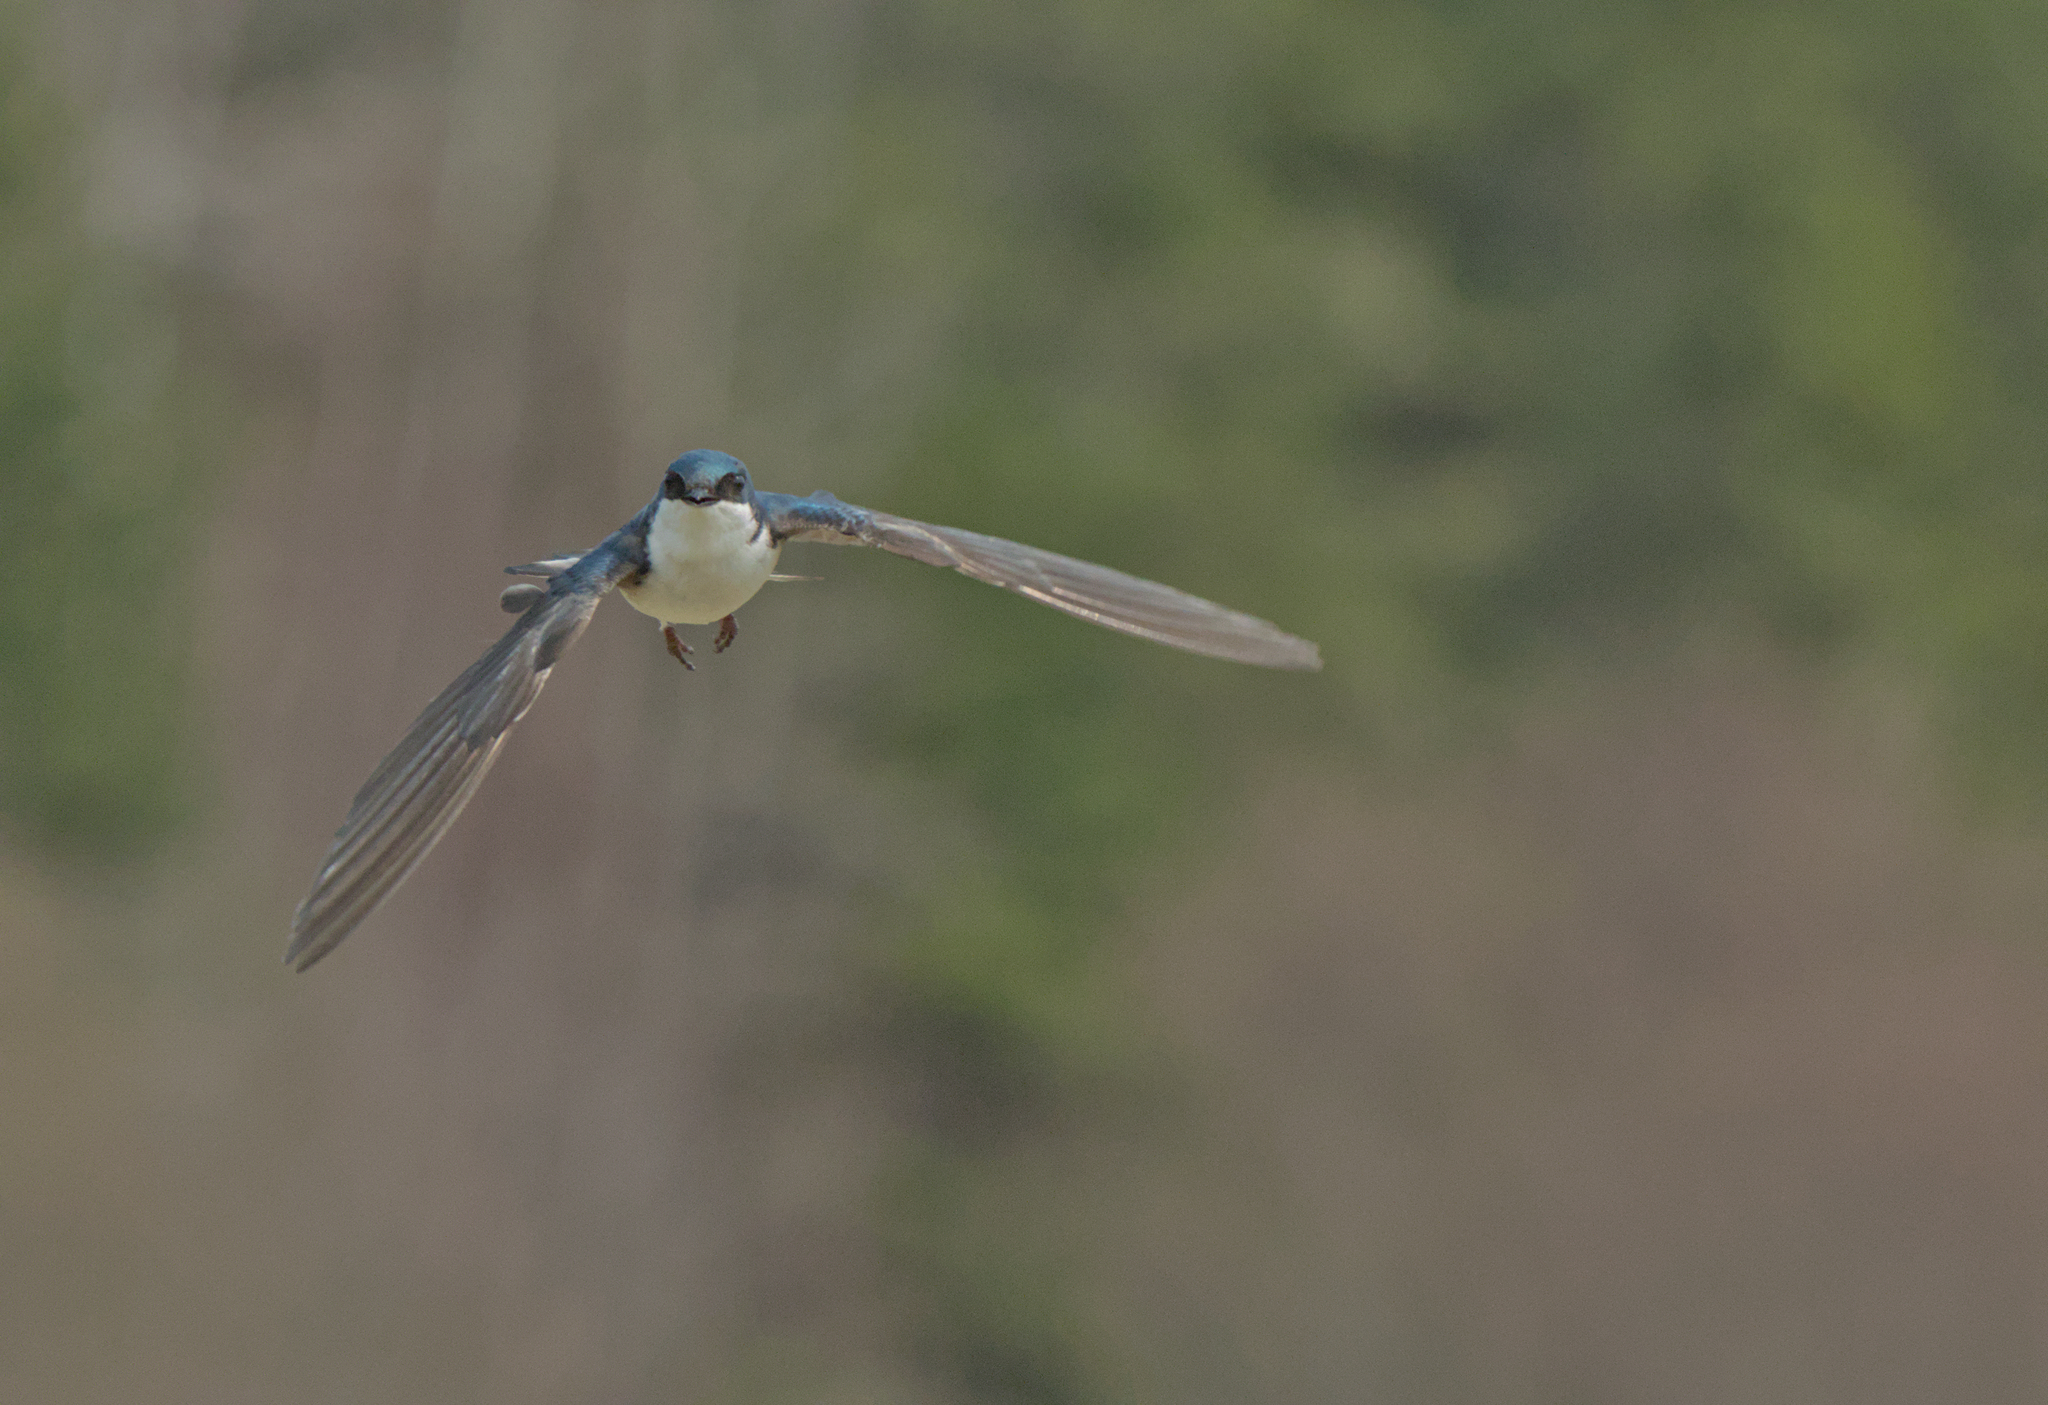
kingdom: Animalia
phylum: Chordata
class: Aves
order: Passeriformes
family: Hirundinidae
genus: Tachycineta
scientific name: Tachycineta bicolor
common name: Tree swallow
